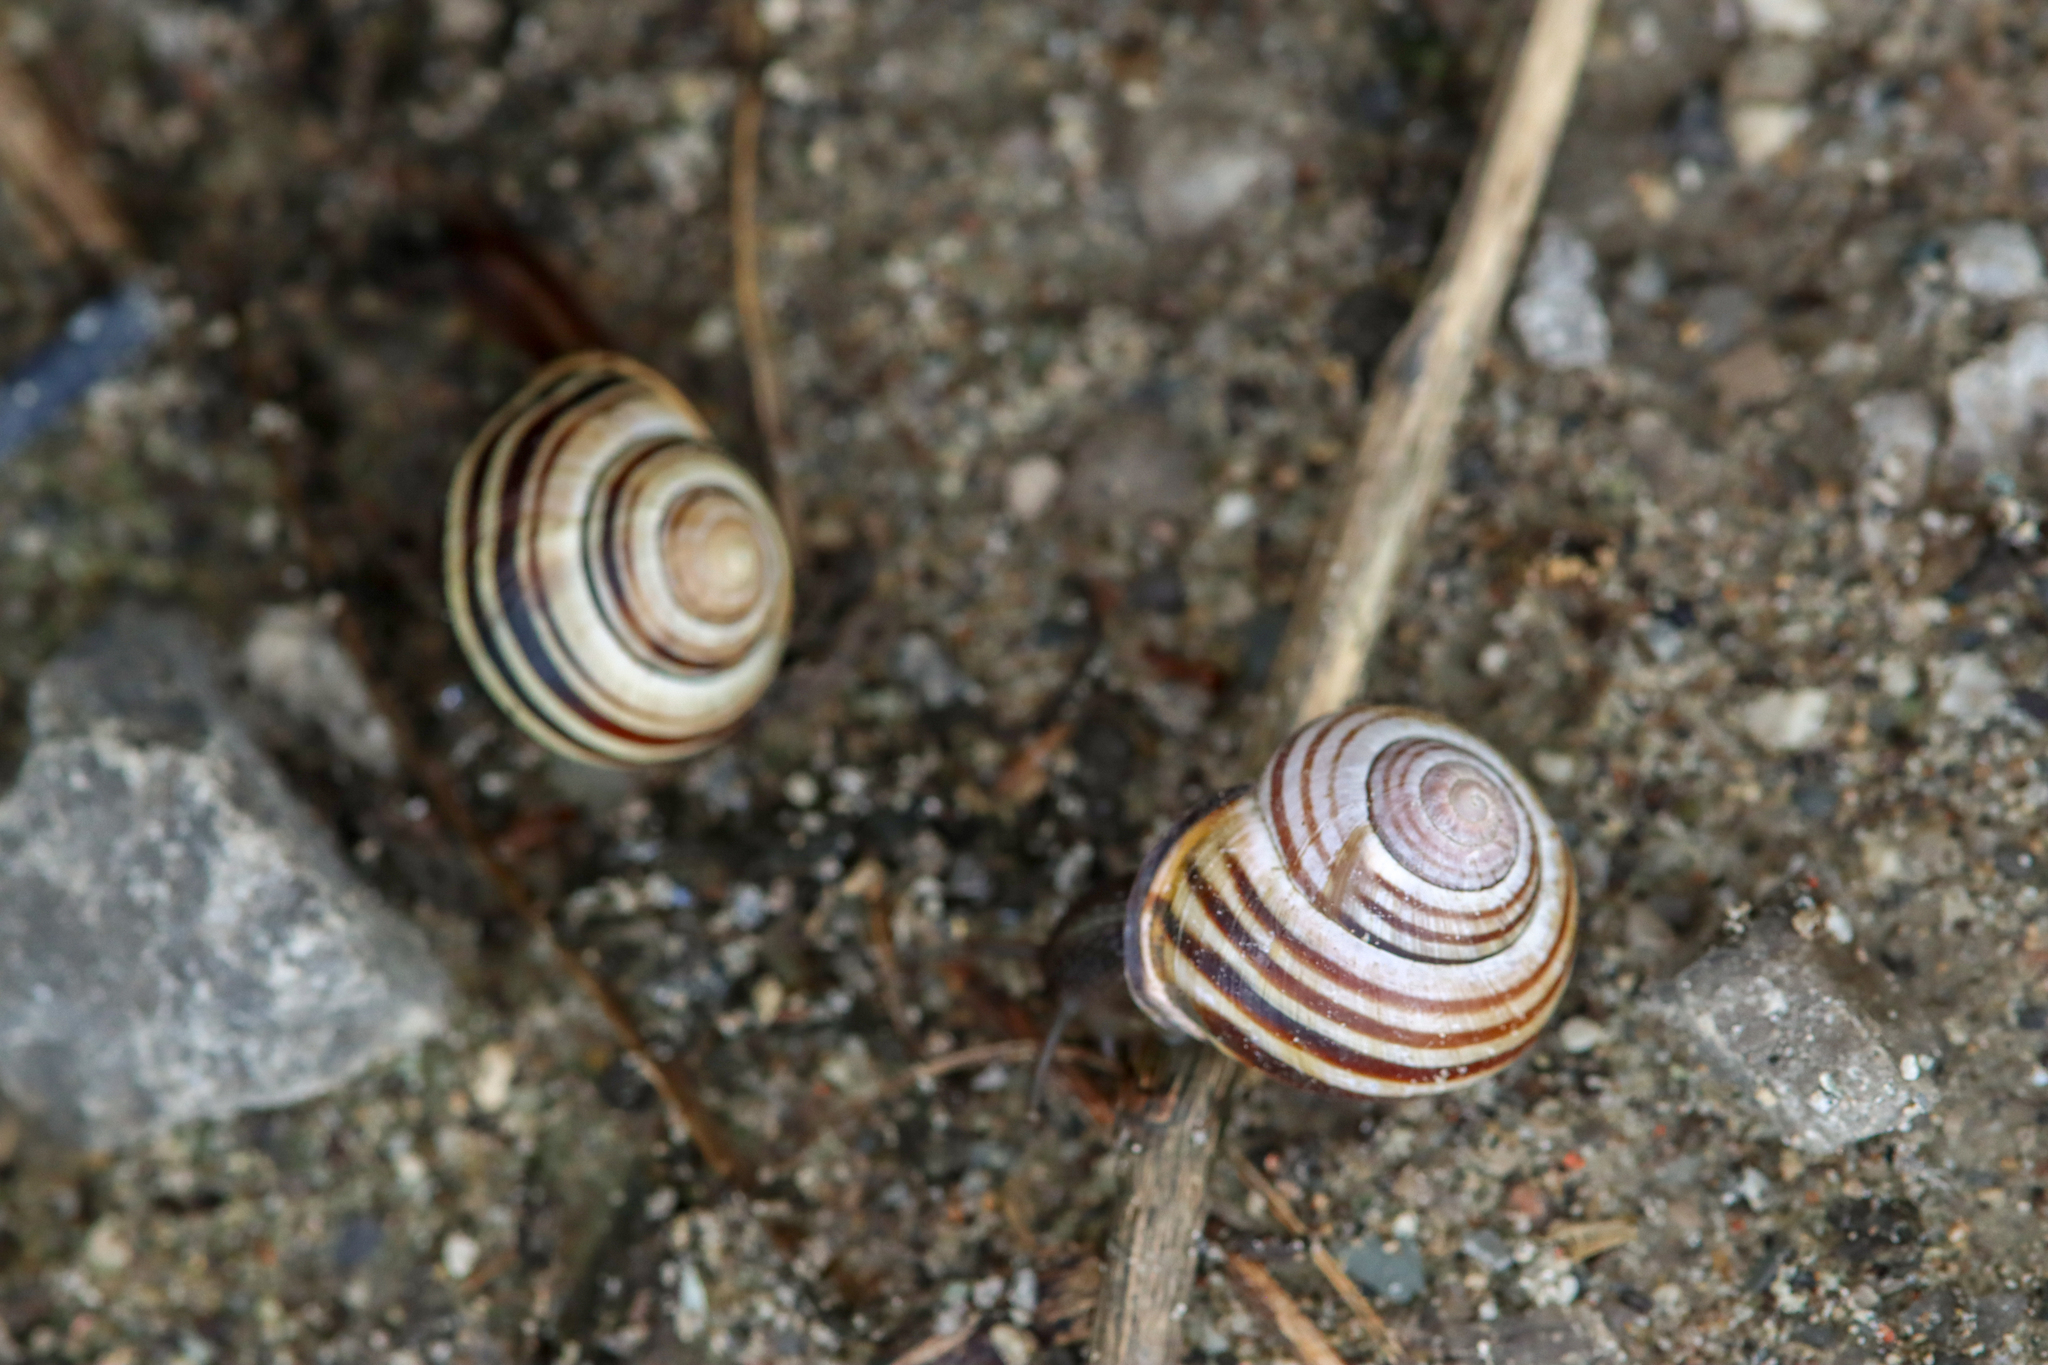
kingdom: Animalia
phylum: Mollusca
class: Gastropoda
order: Stylommatophora
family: Helicidae
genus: Cepaea
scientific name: Cepaea nemoralis
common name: Grovesnail
